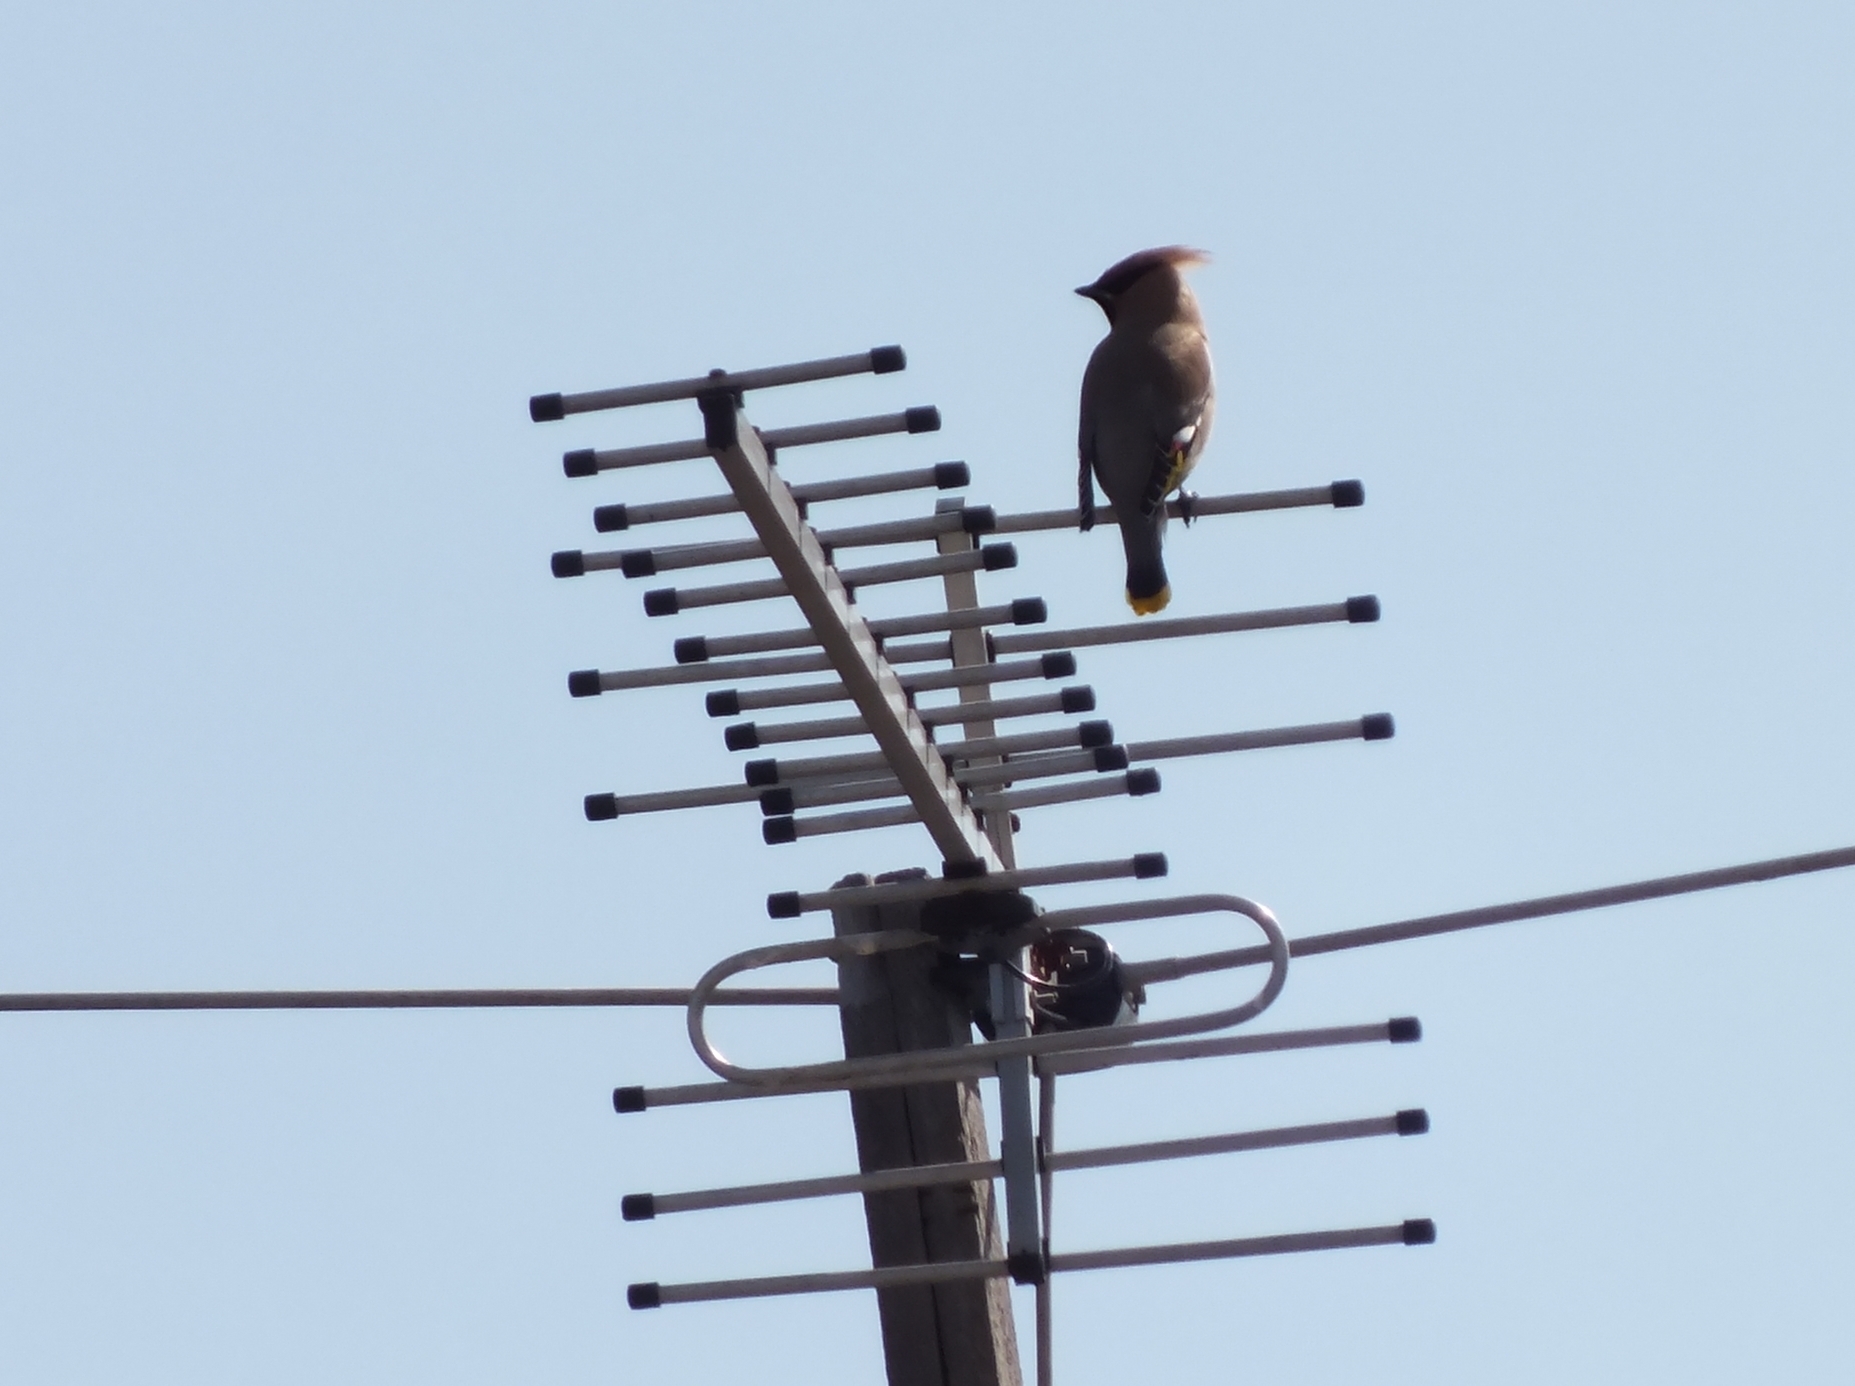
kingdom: Animalia
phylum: Chordata
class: Aves
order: Passeriformes
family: Bombycillidae
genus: Bombycilla
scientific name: Bombycilla garrulus
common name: Bohemian waxwing
